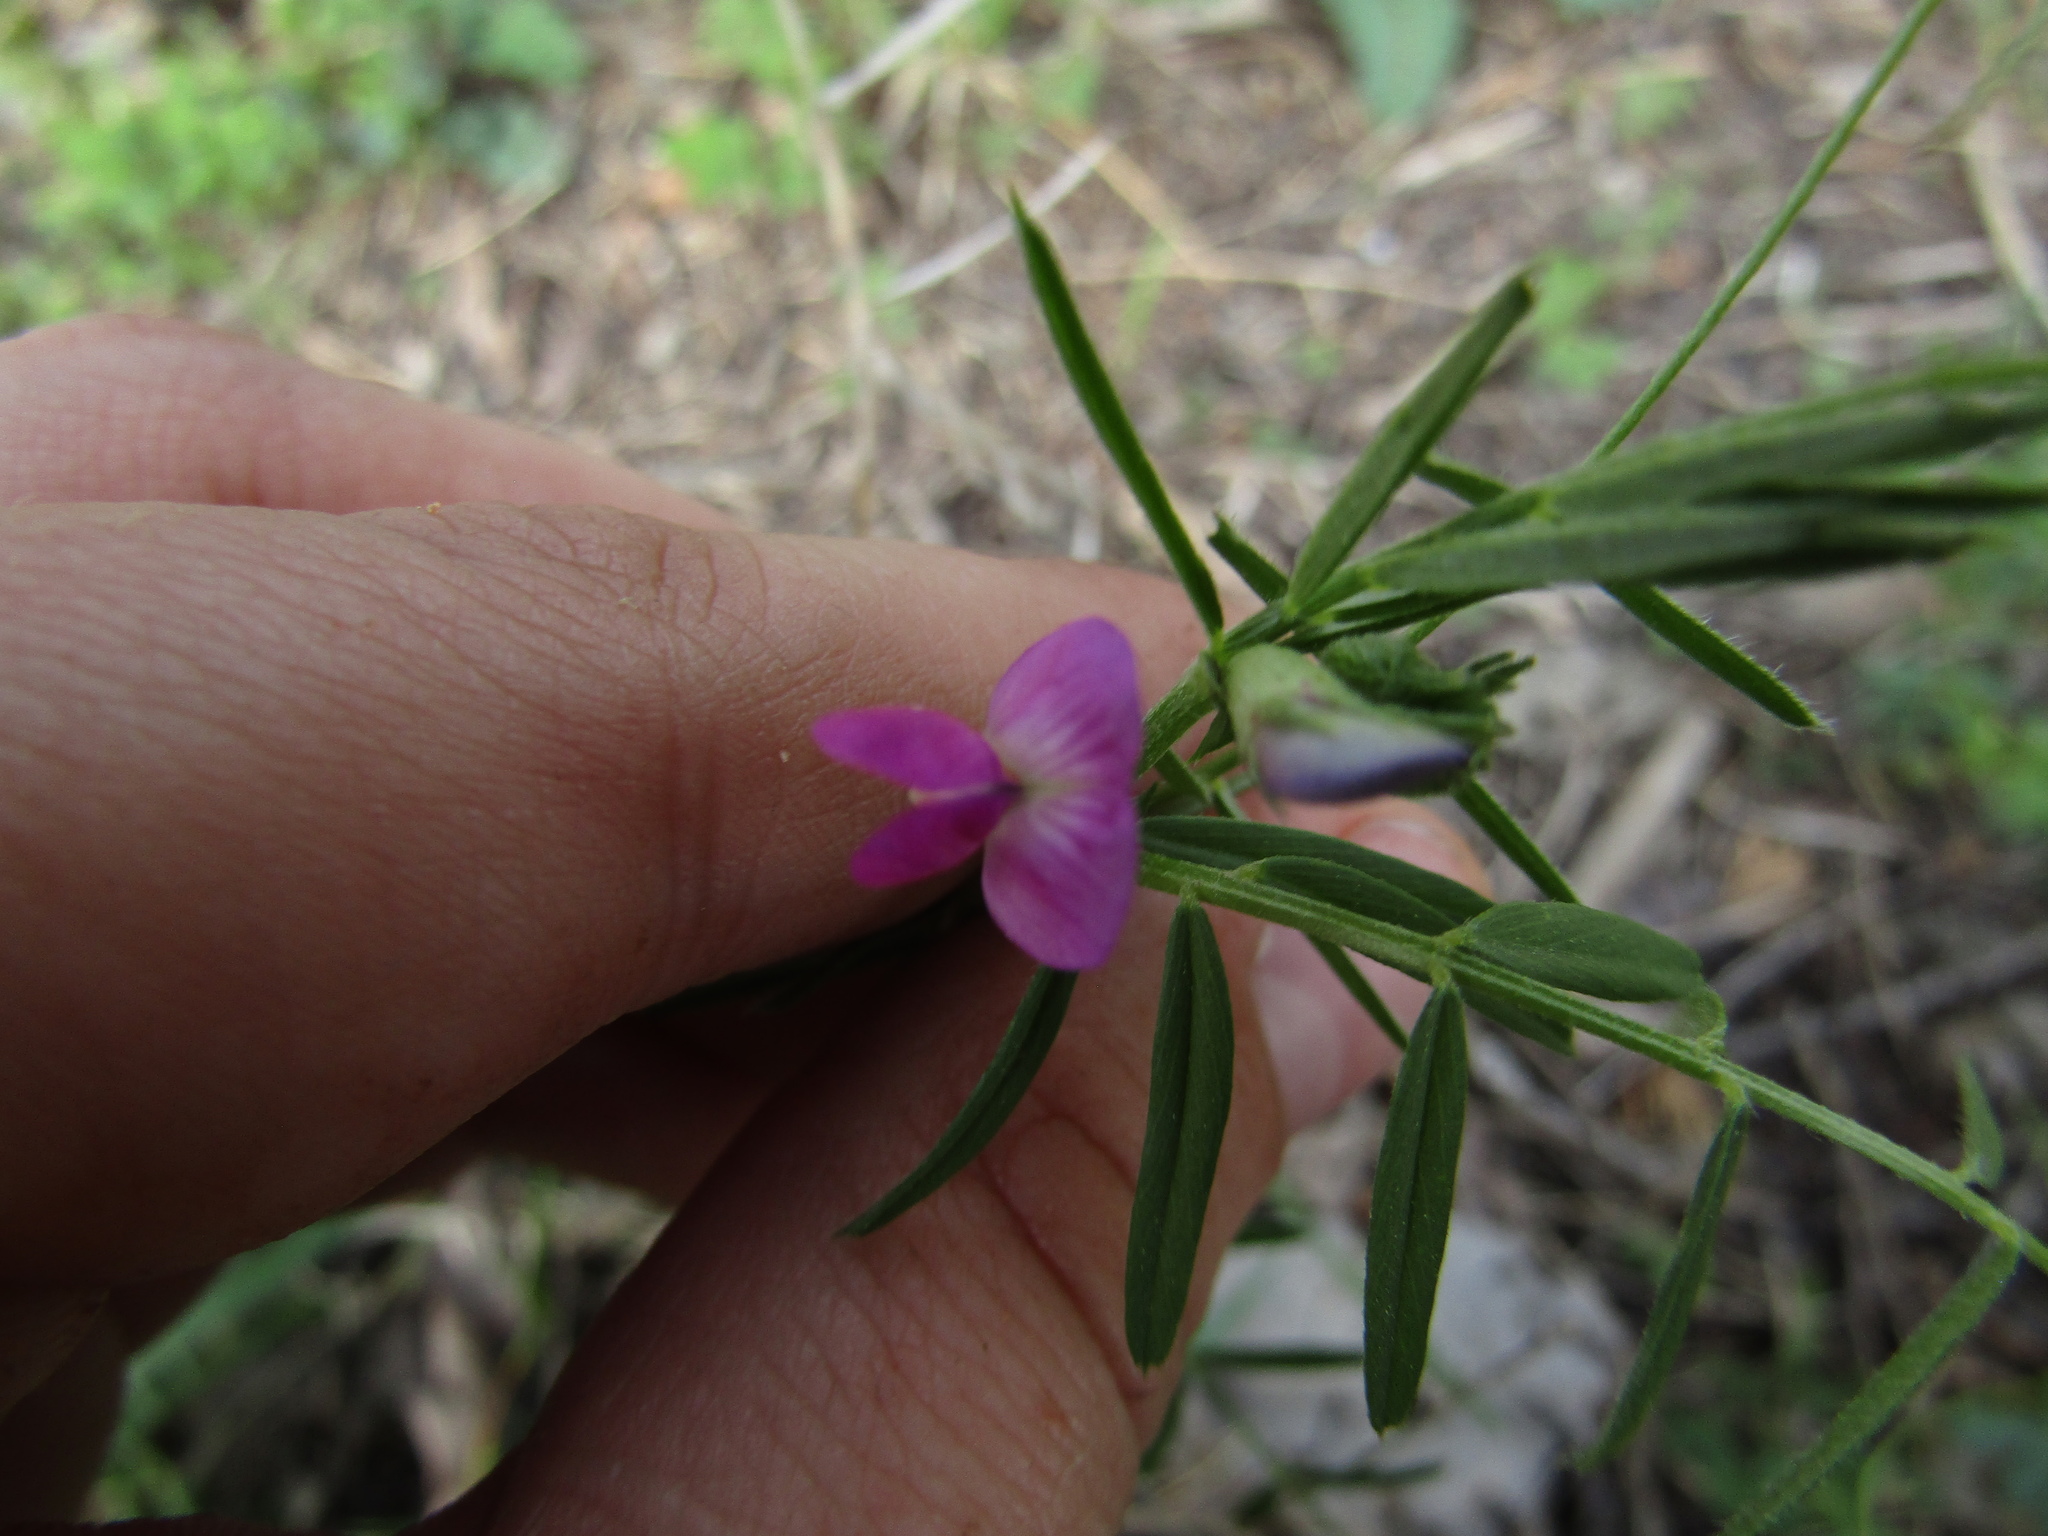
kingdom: Plantae
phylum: Tracheophyta
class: Magnoliopsida
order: Fabales
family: Fabaceae
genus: Vicia
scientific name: Vicia sativa
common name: Garden vetch
